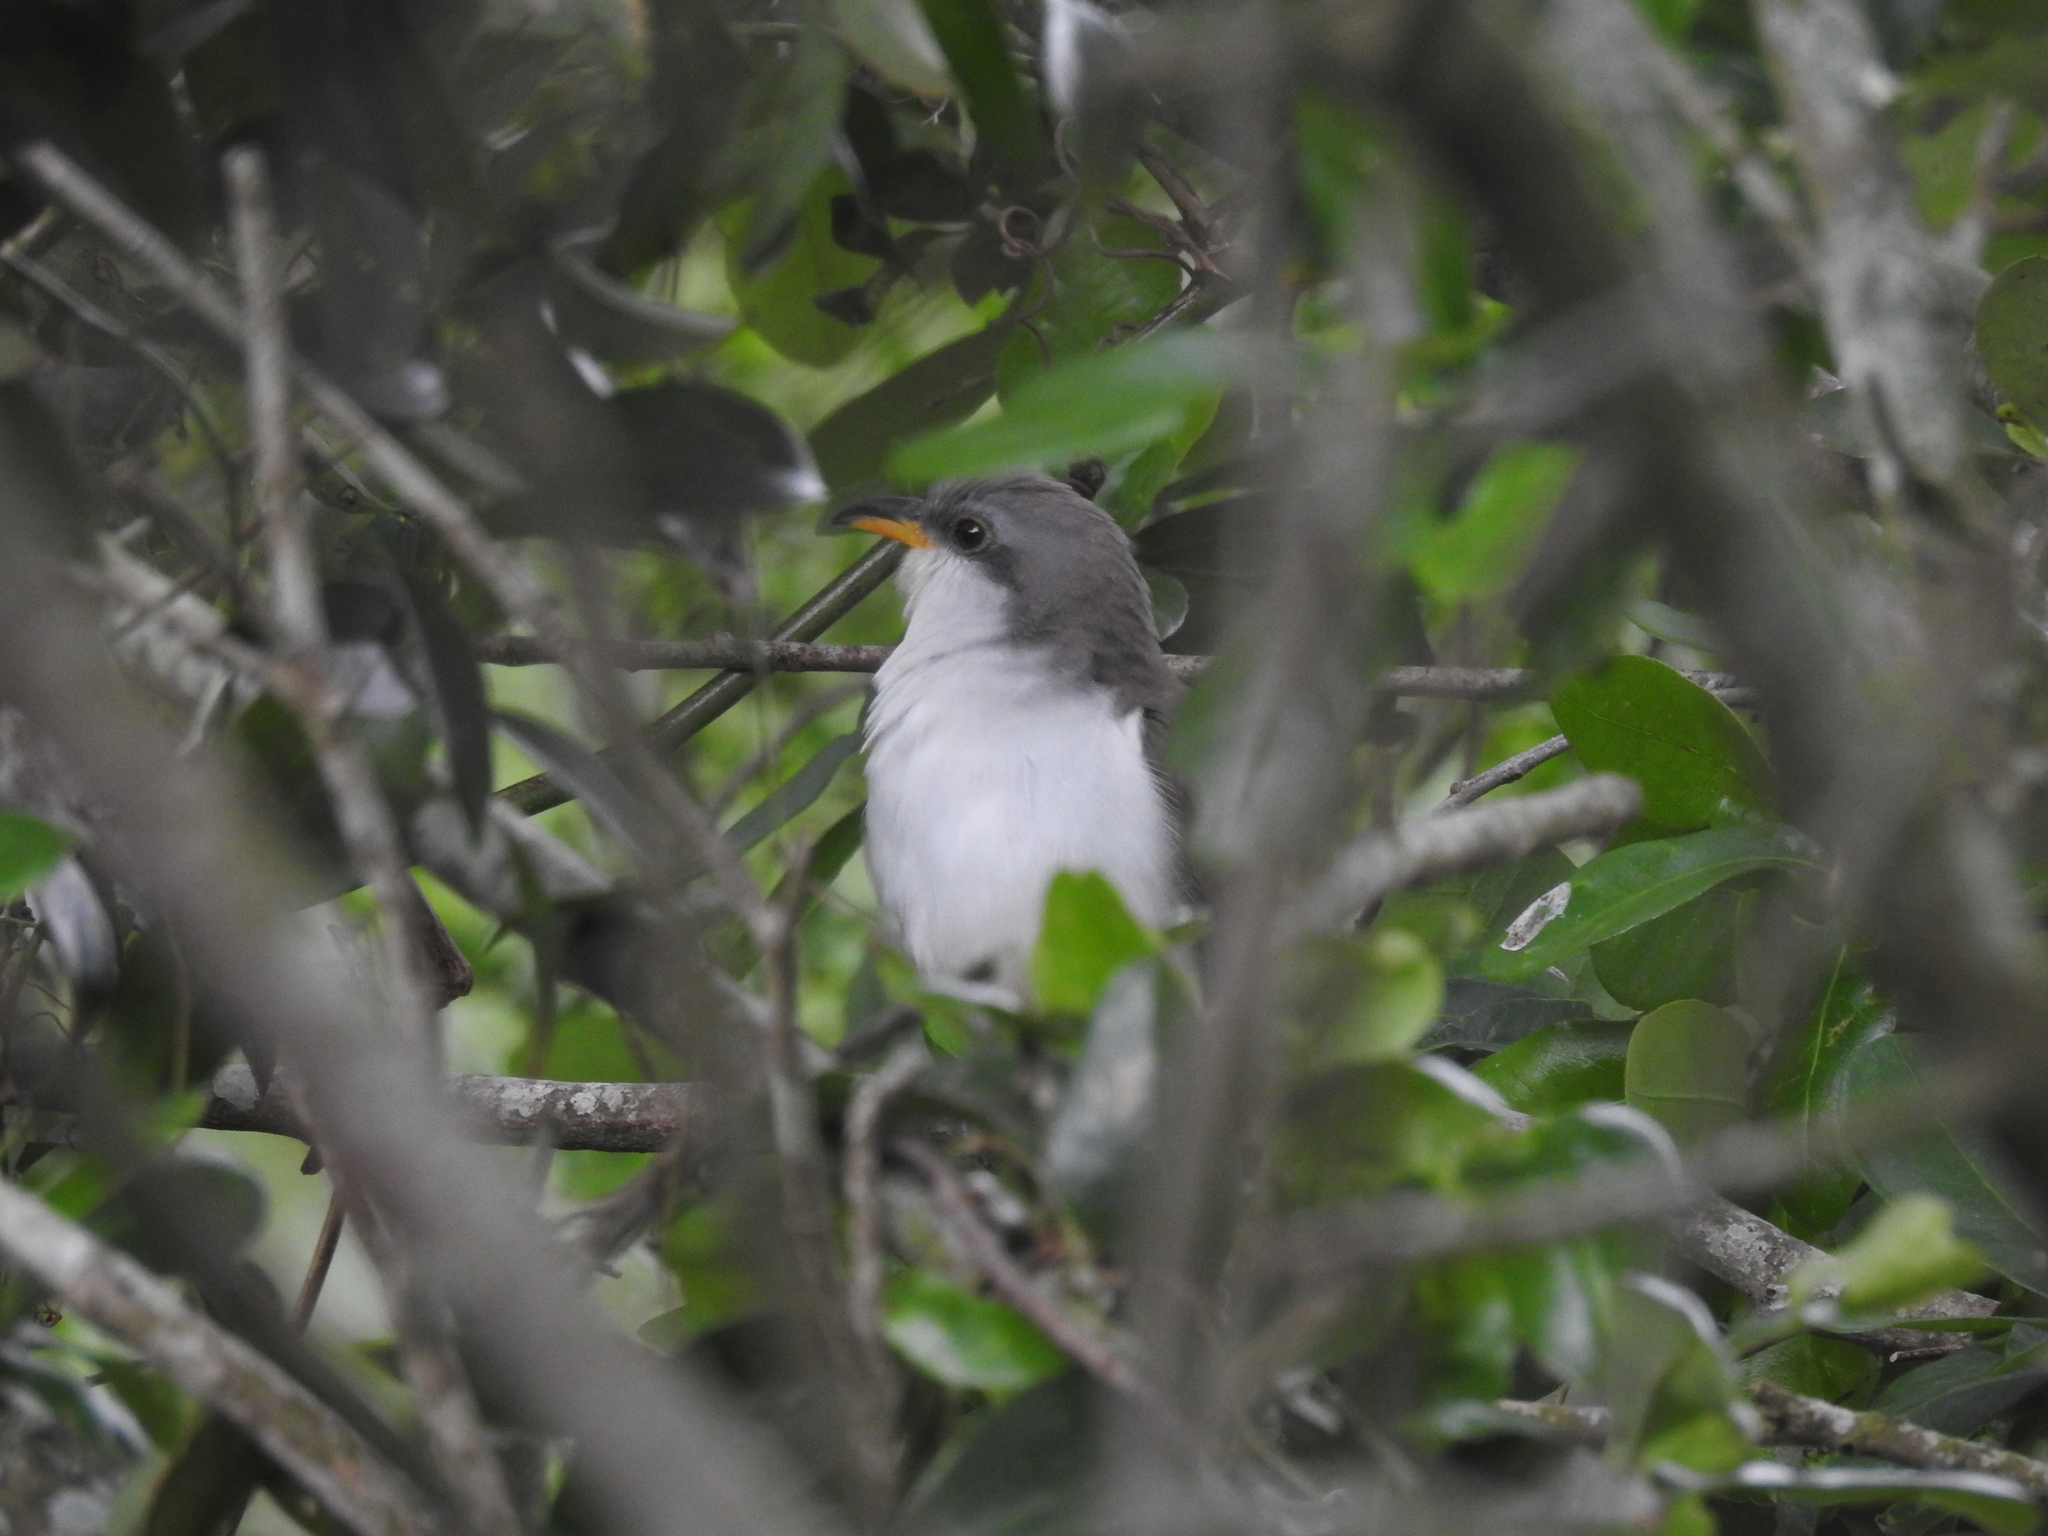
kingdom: Animalia
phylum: Chordata
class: Aves
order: Cuculiformes
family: Cuculidae
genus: Coccyzus
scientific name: Coccyzus americanus
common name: Yellow-billed cuckoo
